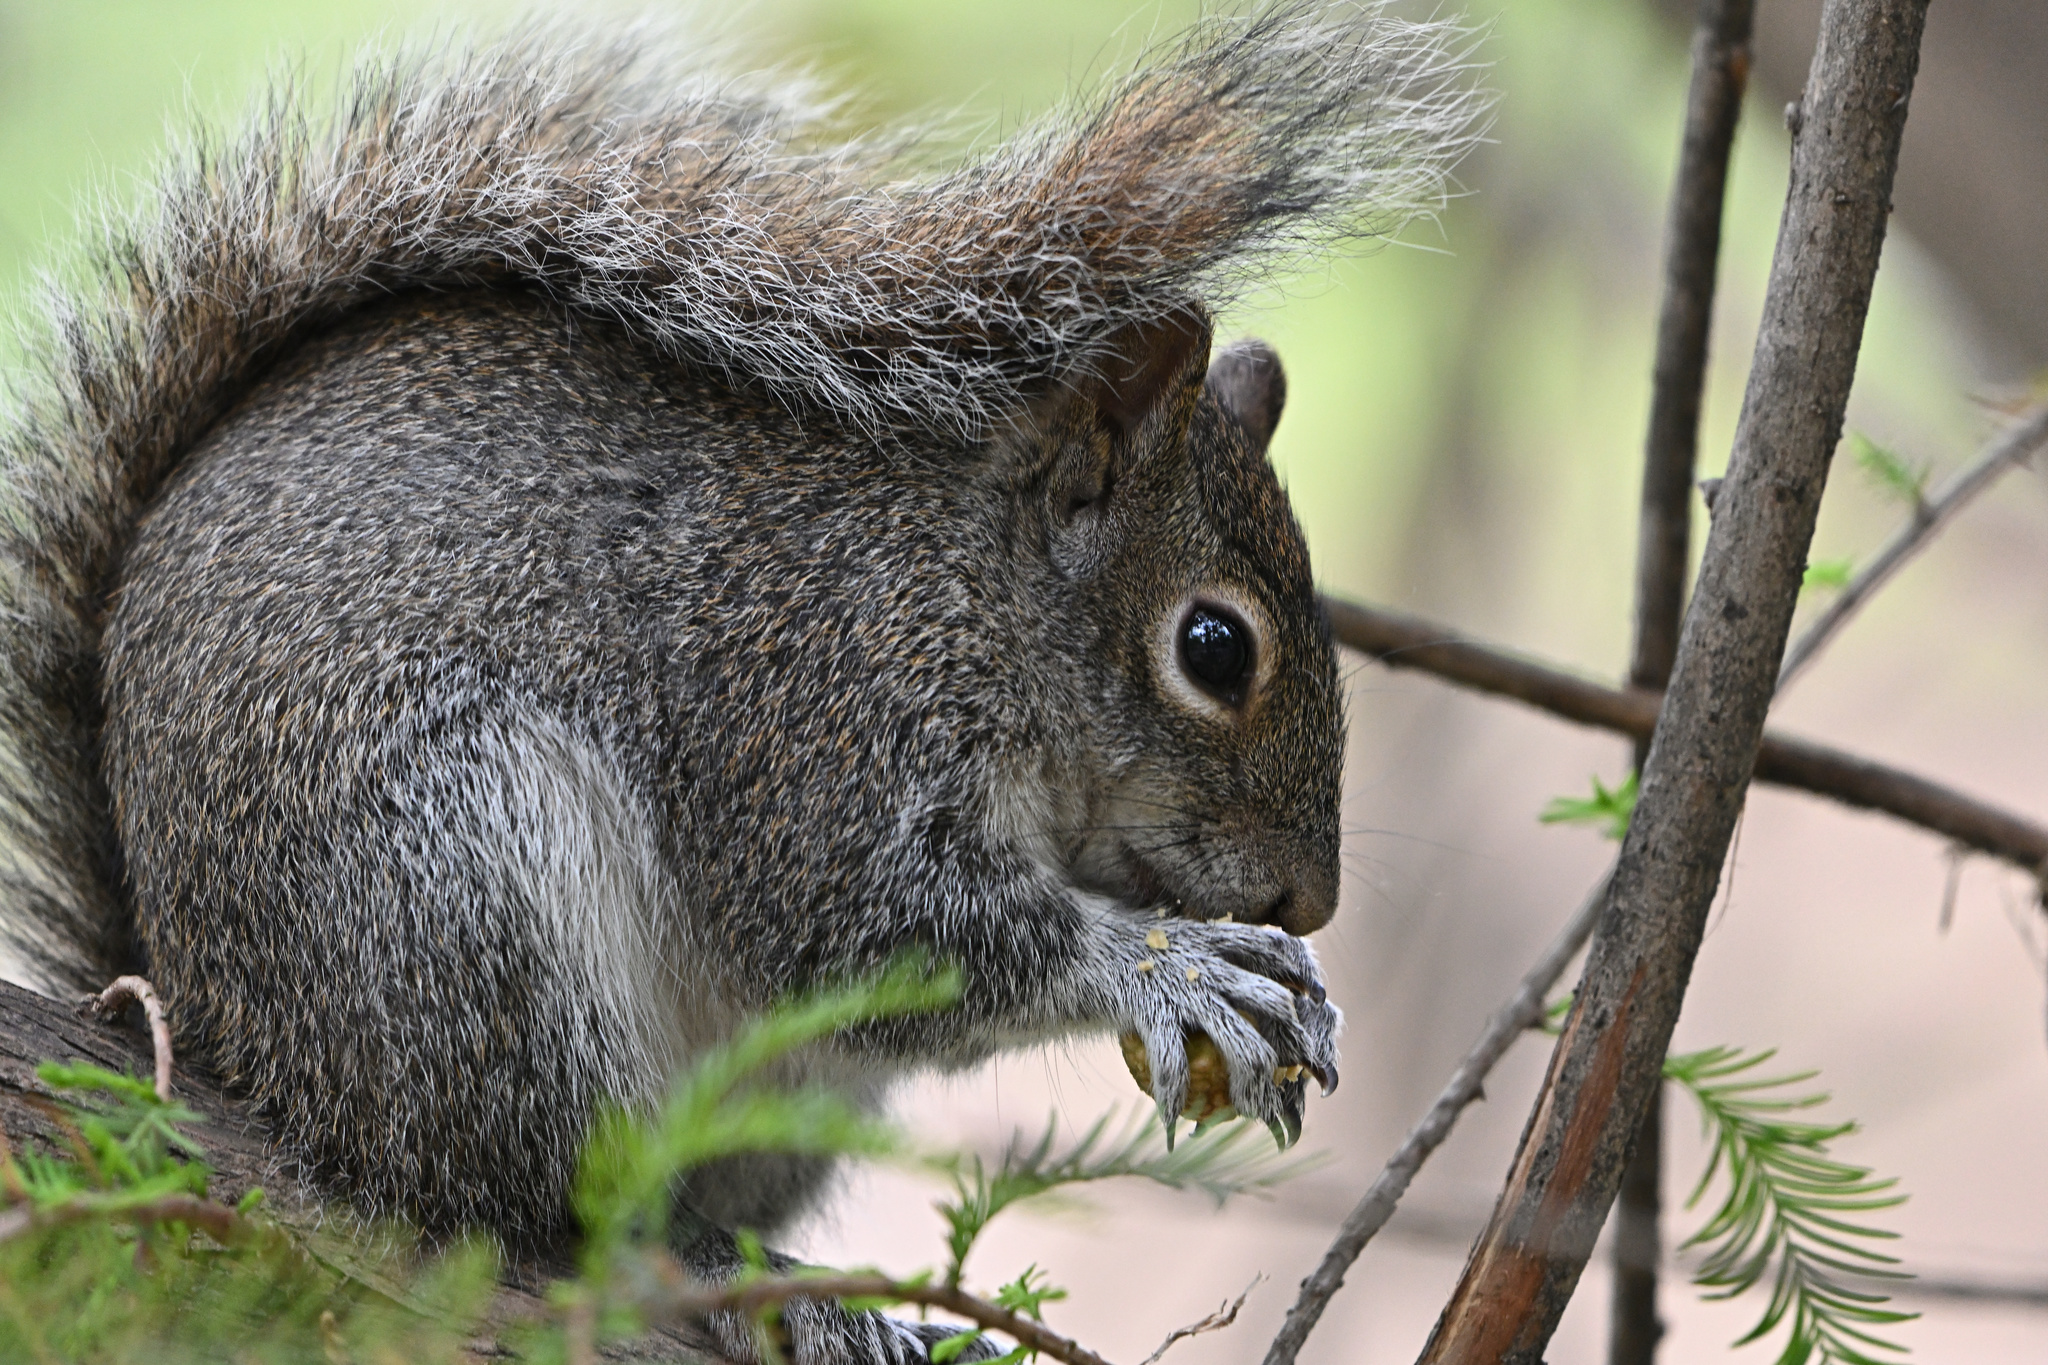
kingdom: Animalia
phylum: Chordata
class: Mammalia
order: Rodentia
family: Sciuridae
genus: Sciurus
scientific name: Sciurus alleni
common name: Allen's squirrel
